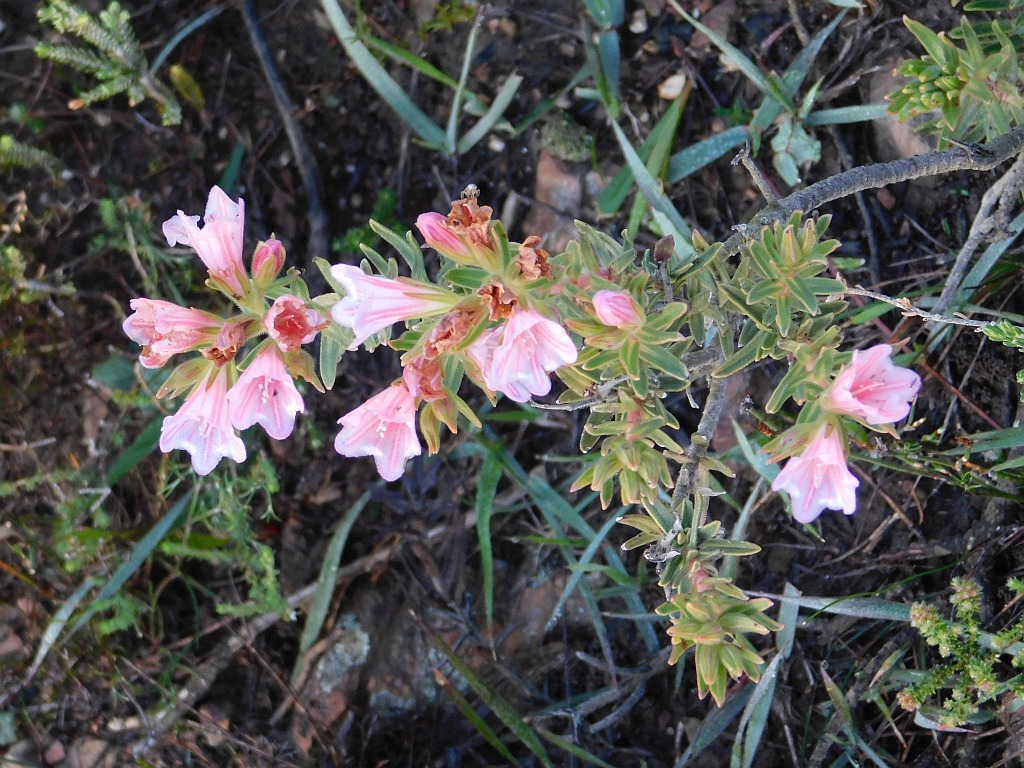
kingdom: Plantae
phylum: Tracheophyta
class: Magnoliopsida
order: Boraginales
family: Boraginaceae
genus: Lobostemon
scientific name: Lobostemon fruticosus
